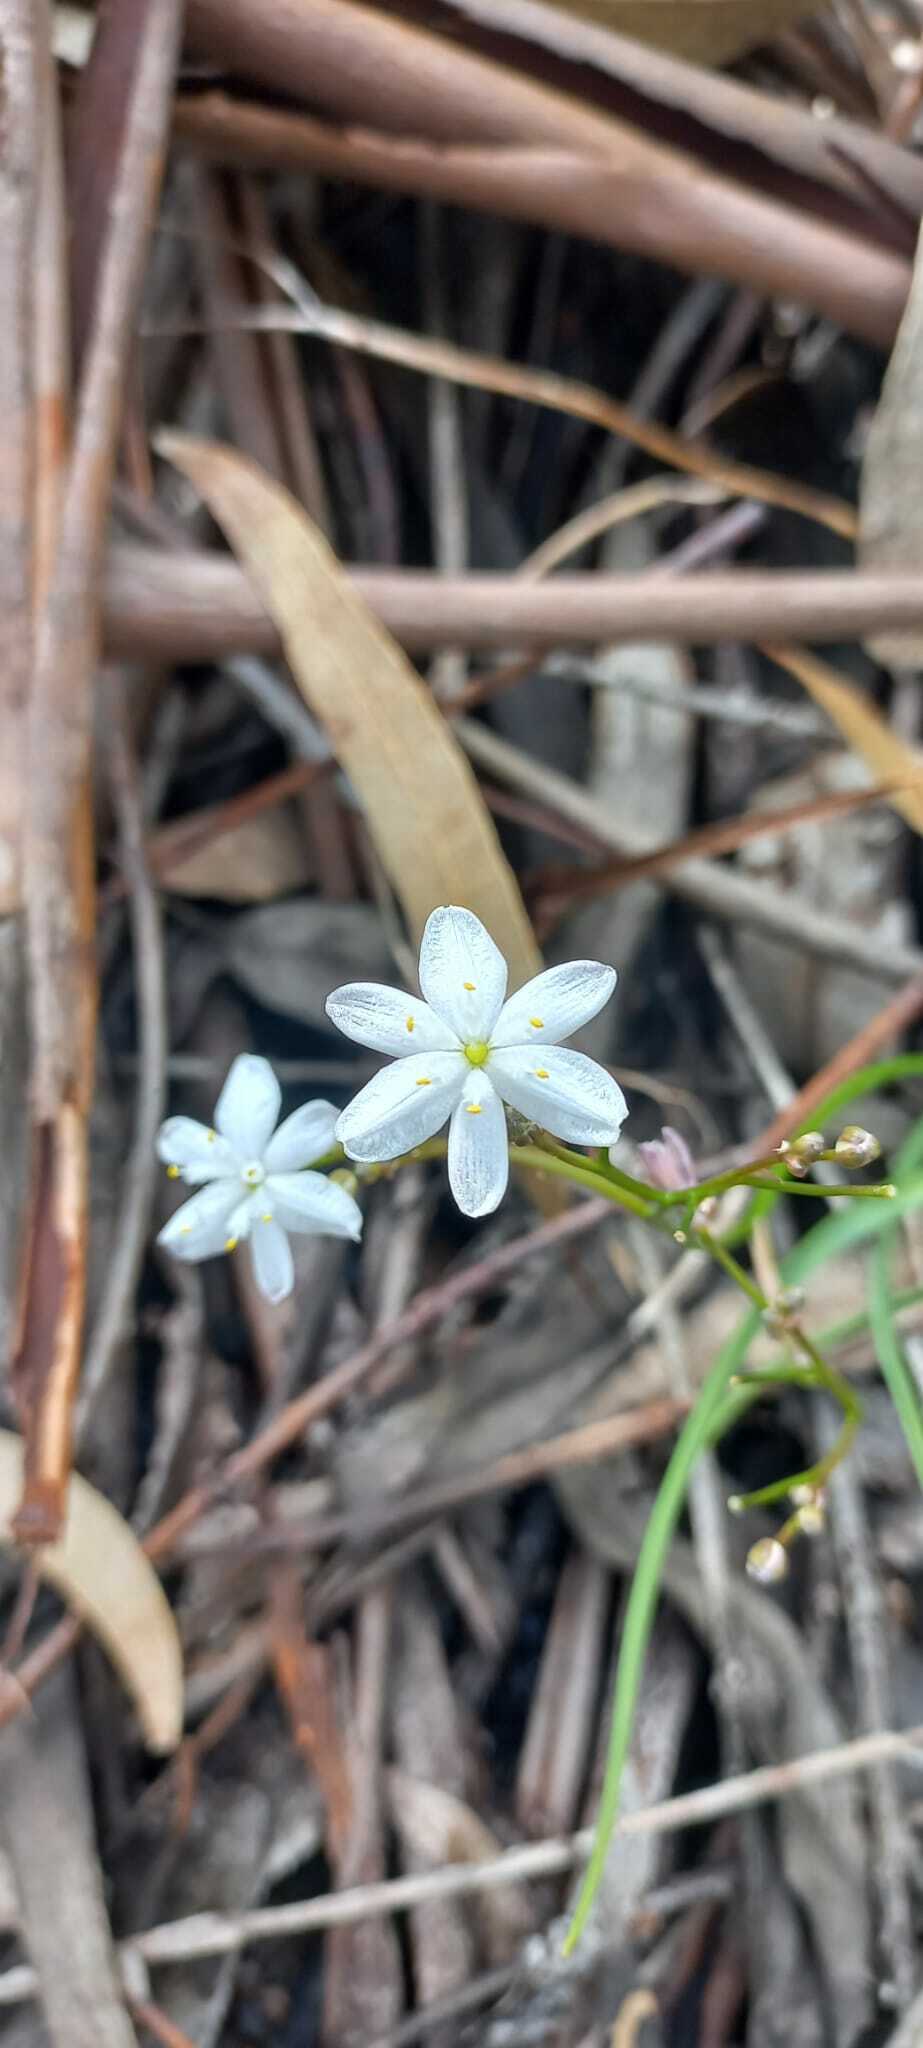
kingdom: Plantae
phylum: Tracheophyta
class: Liliopsida
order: Asparagales
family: Asphodelaceae
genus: Simethis
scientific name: Simethis mattiazzii
